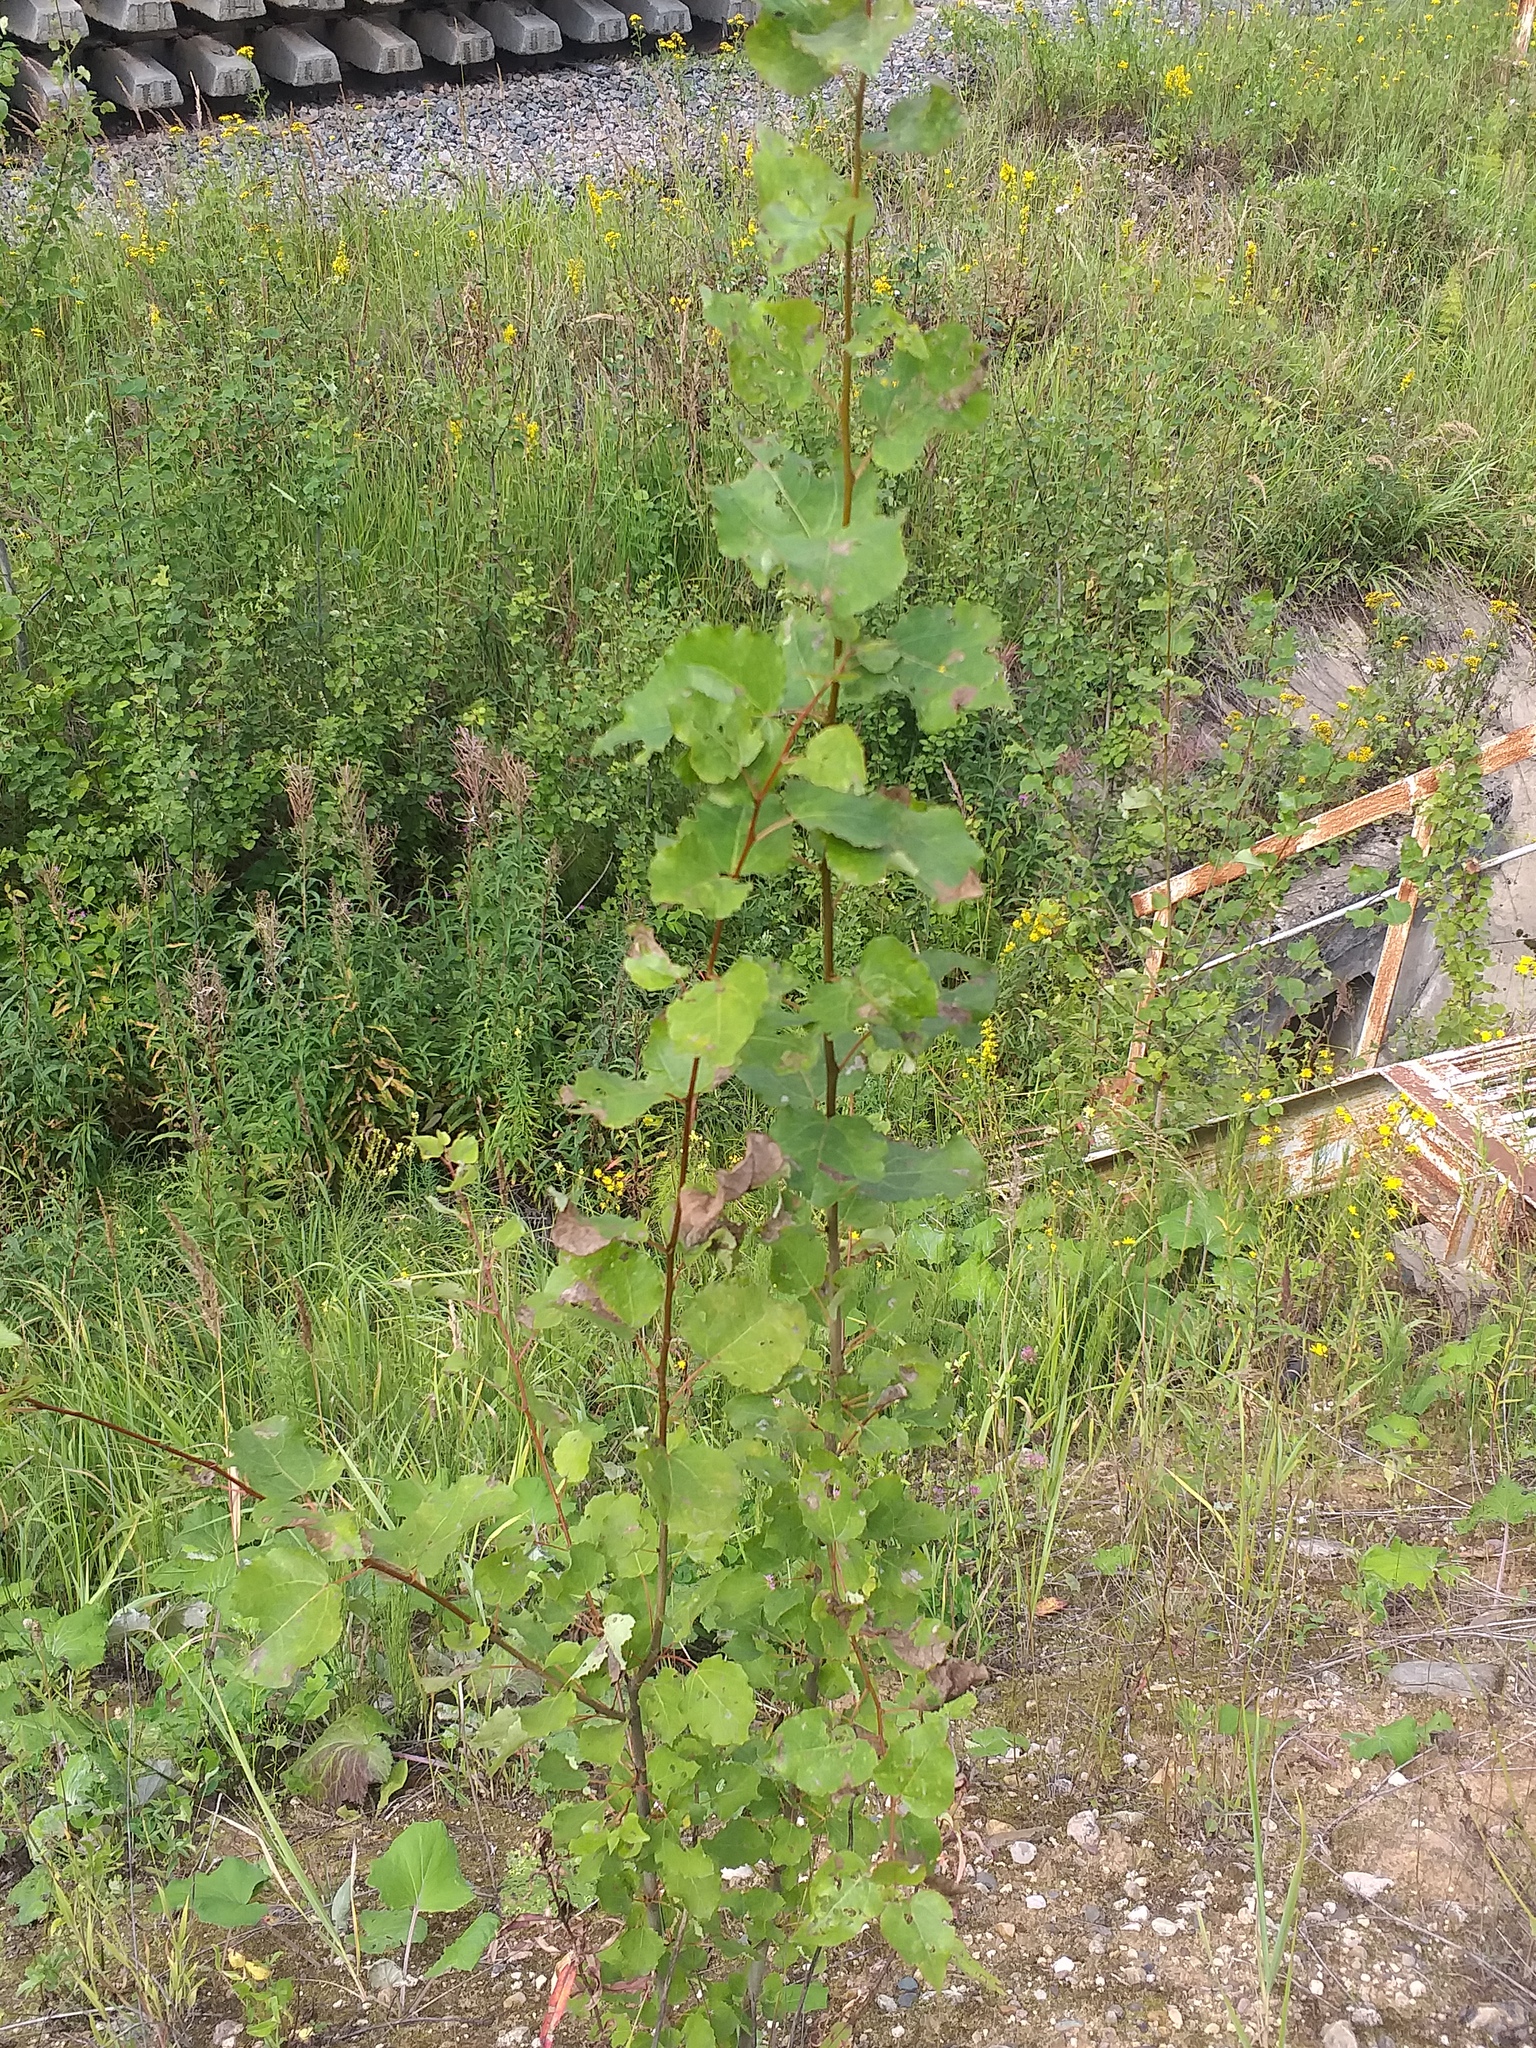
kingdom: Plantae
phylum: Tracheophyta
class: Magnoliopsida
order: Malpighiales
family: Salicaceae
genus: Populus
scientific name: Populus tremula
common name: European aspen
